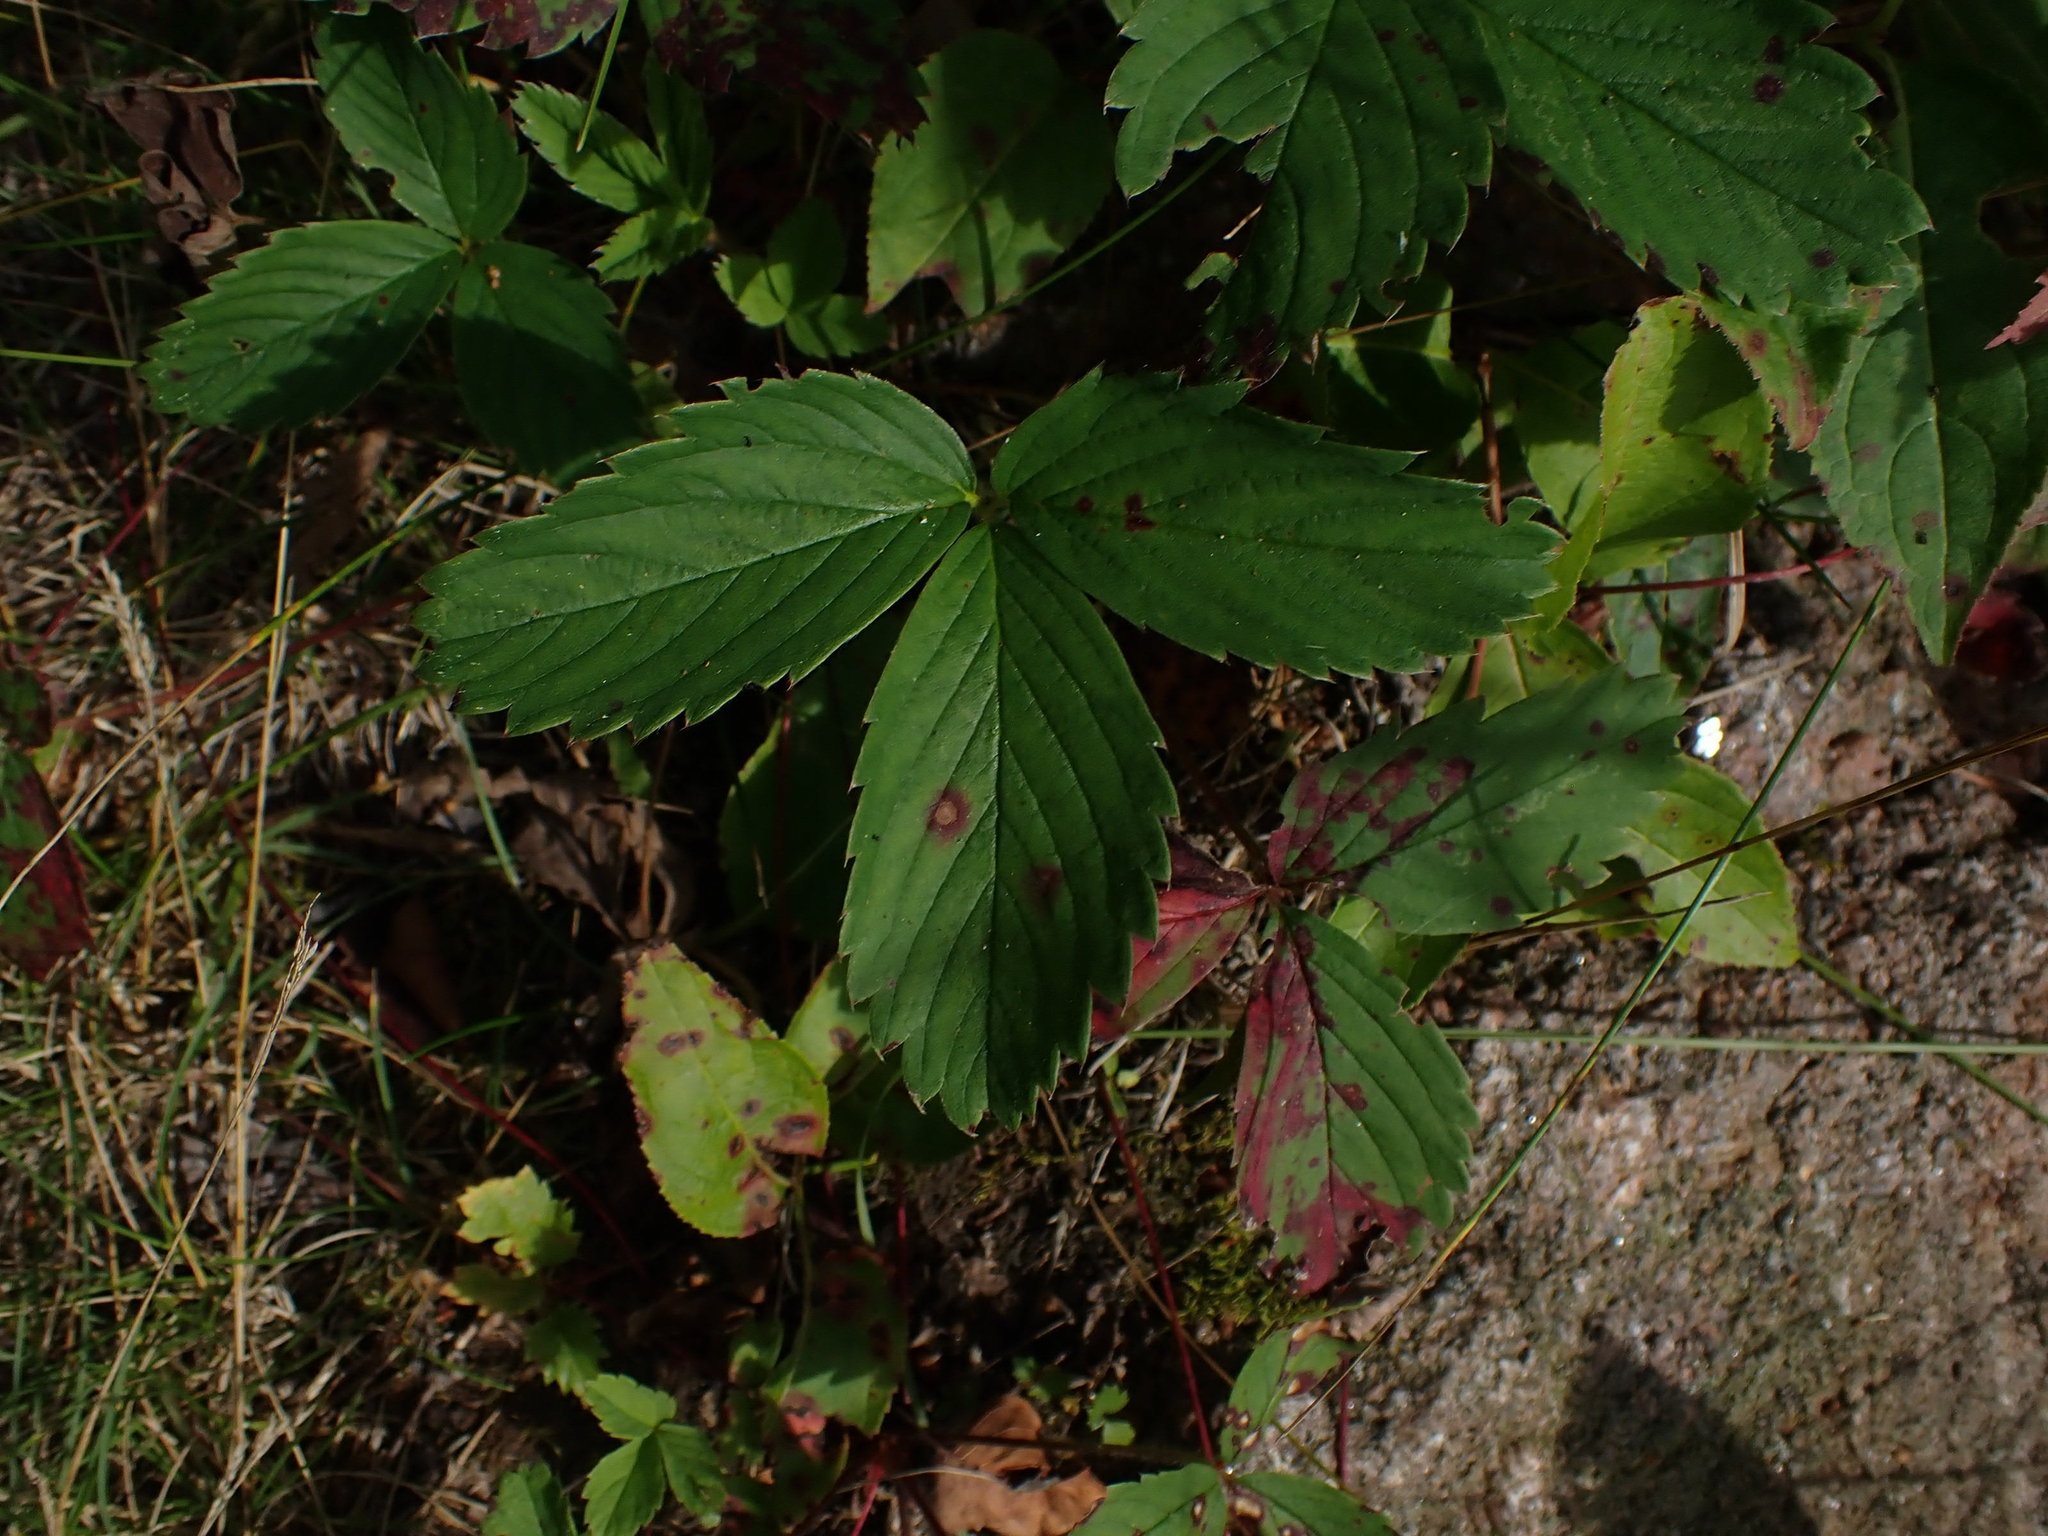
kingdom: Plantae
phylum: Tracheophyta
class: Magnoliopsida
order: Rosales
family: Rosaceae
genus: Fragaria
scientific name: Fragaria virginiana
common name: Thickleaved wild strawberry
